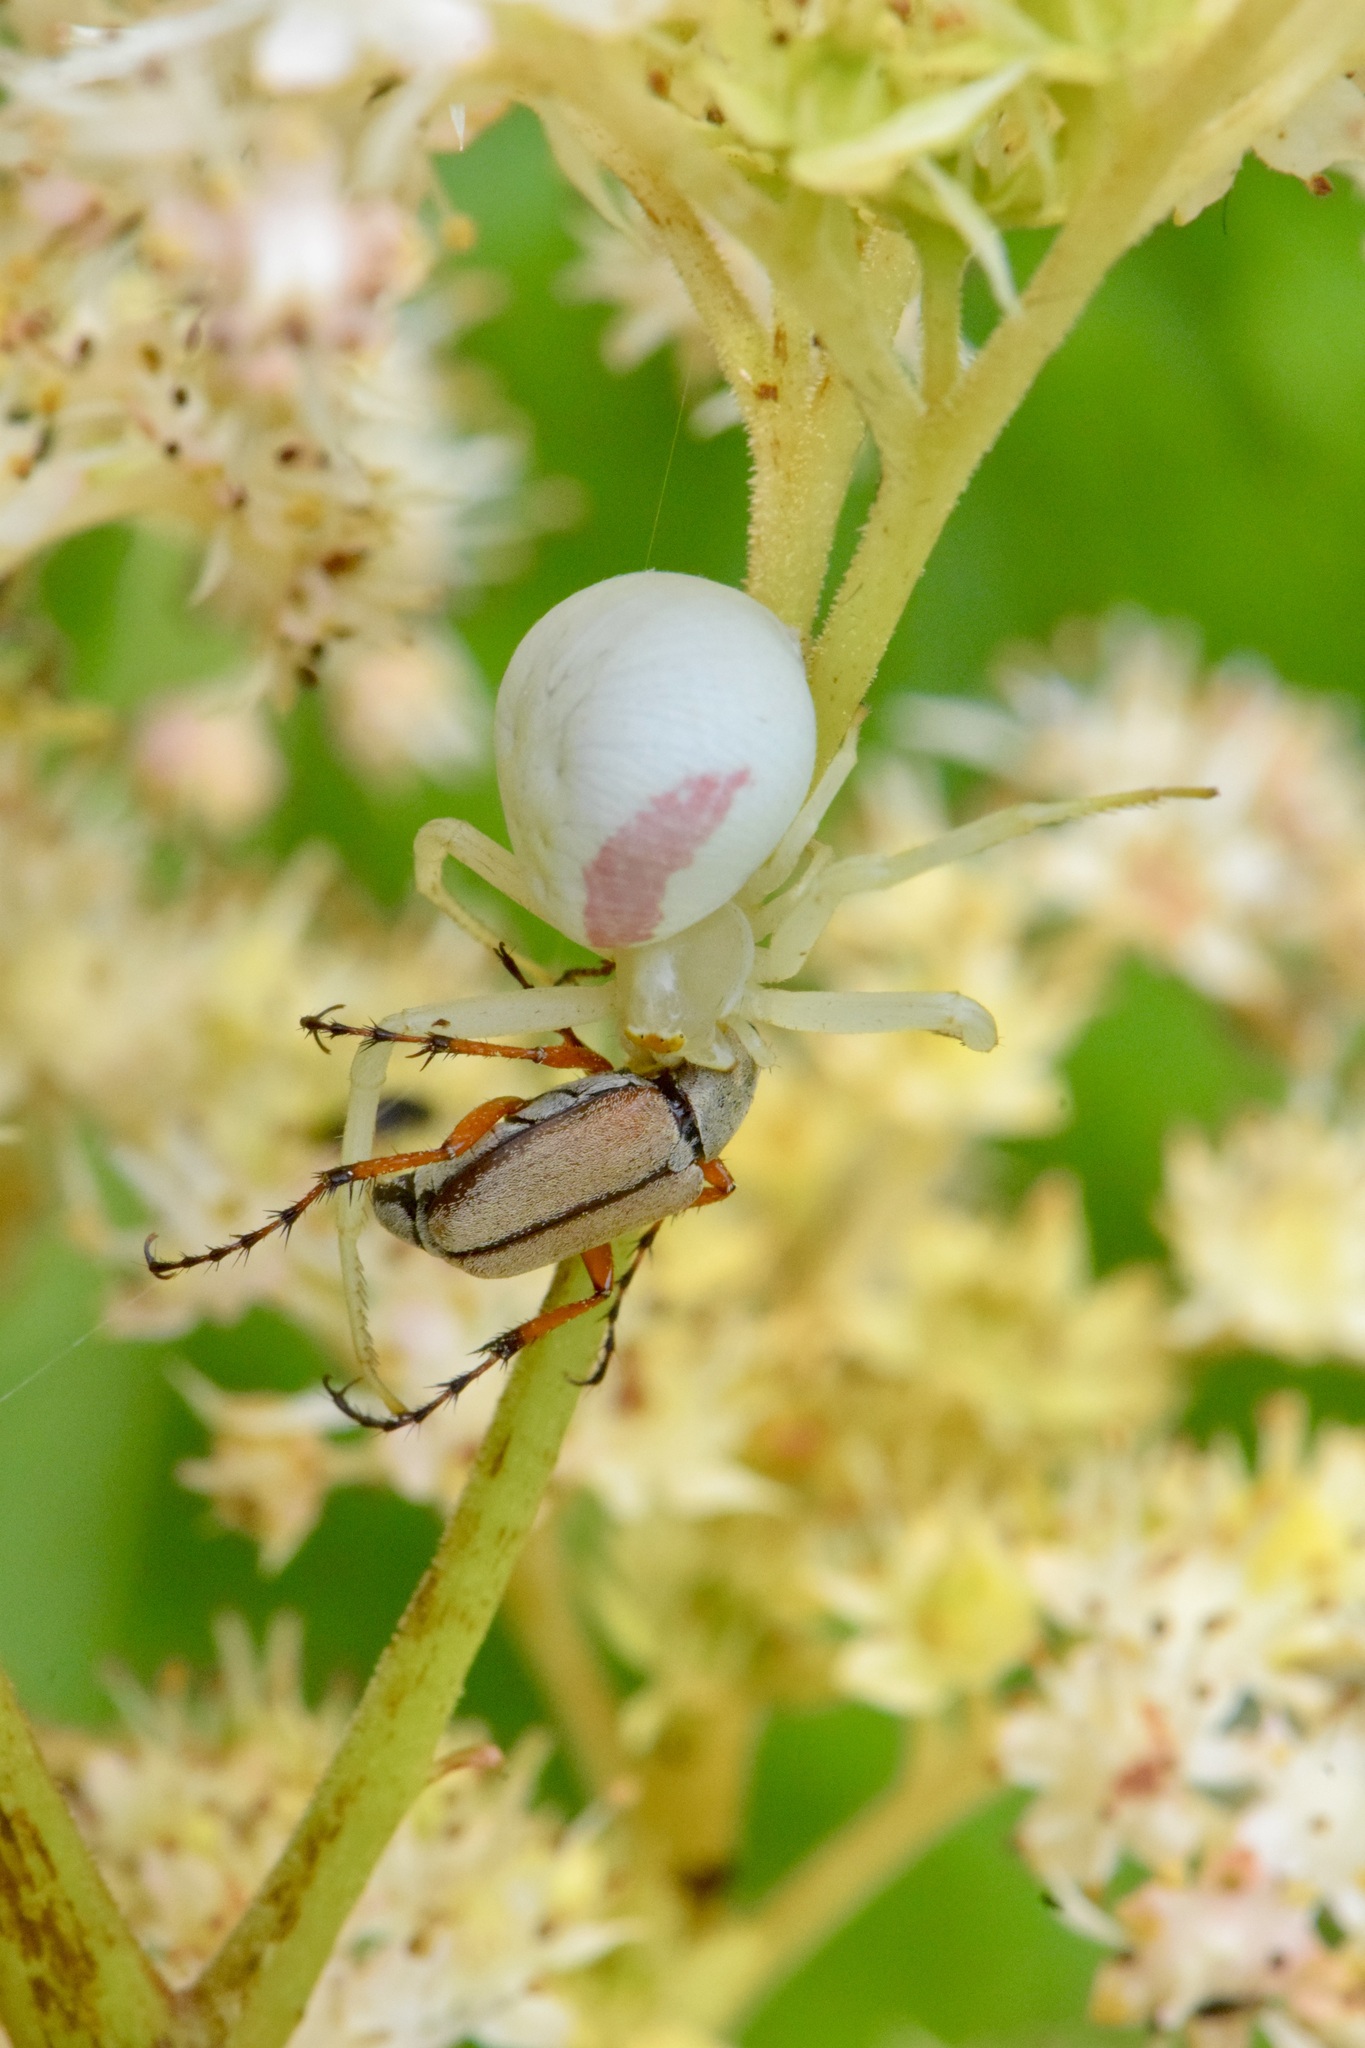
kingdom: Animalia
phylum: Arthropoda
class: Arachnida
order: Araneae
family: Thomisidae
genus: Misumena
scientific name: Misumena vatia
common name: Goldenrod crab spider
